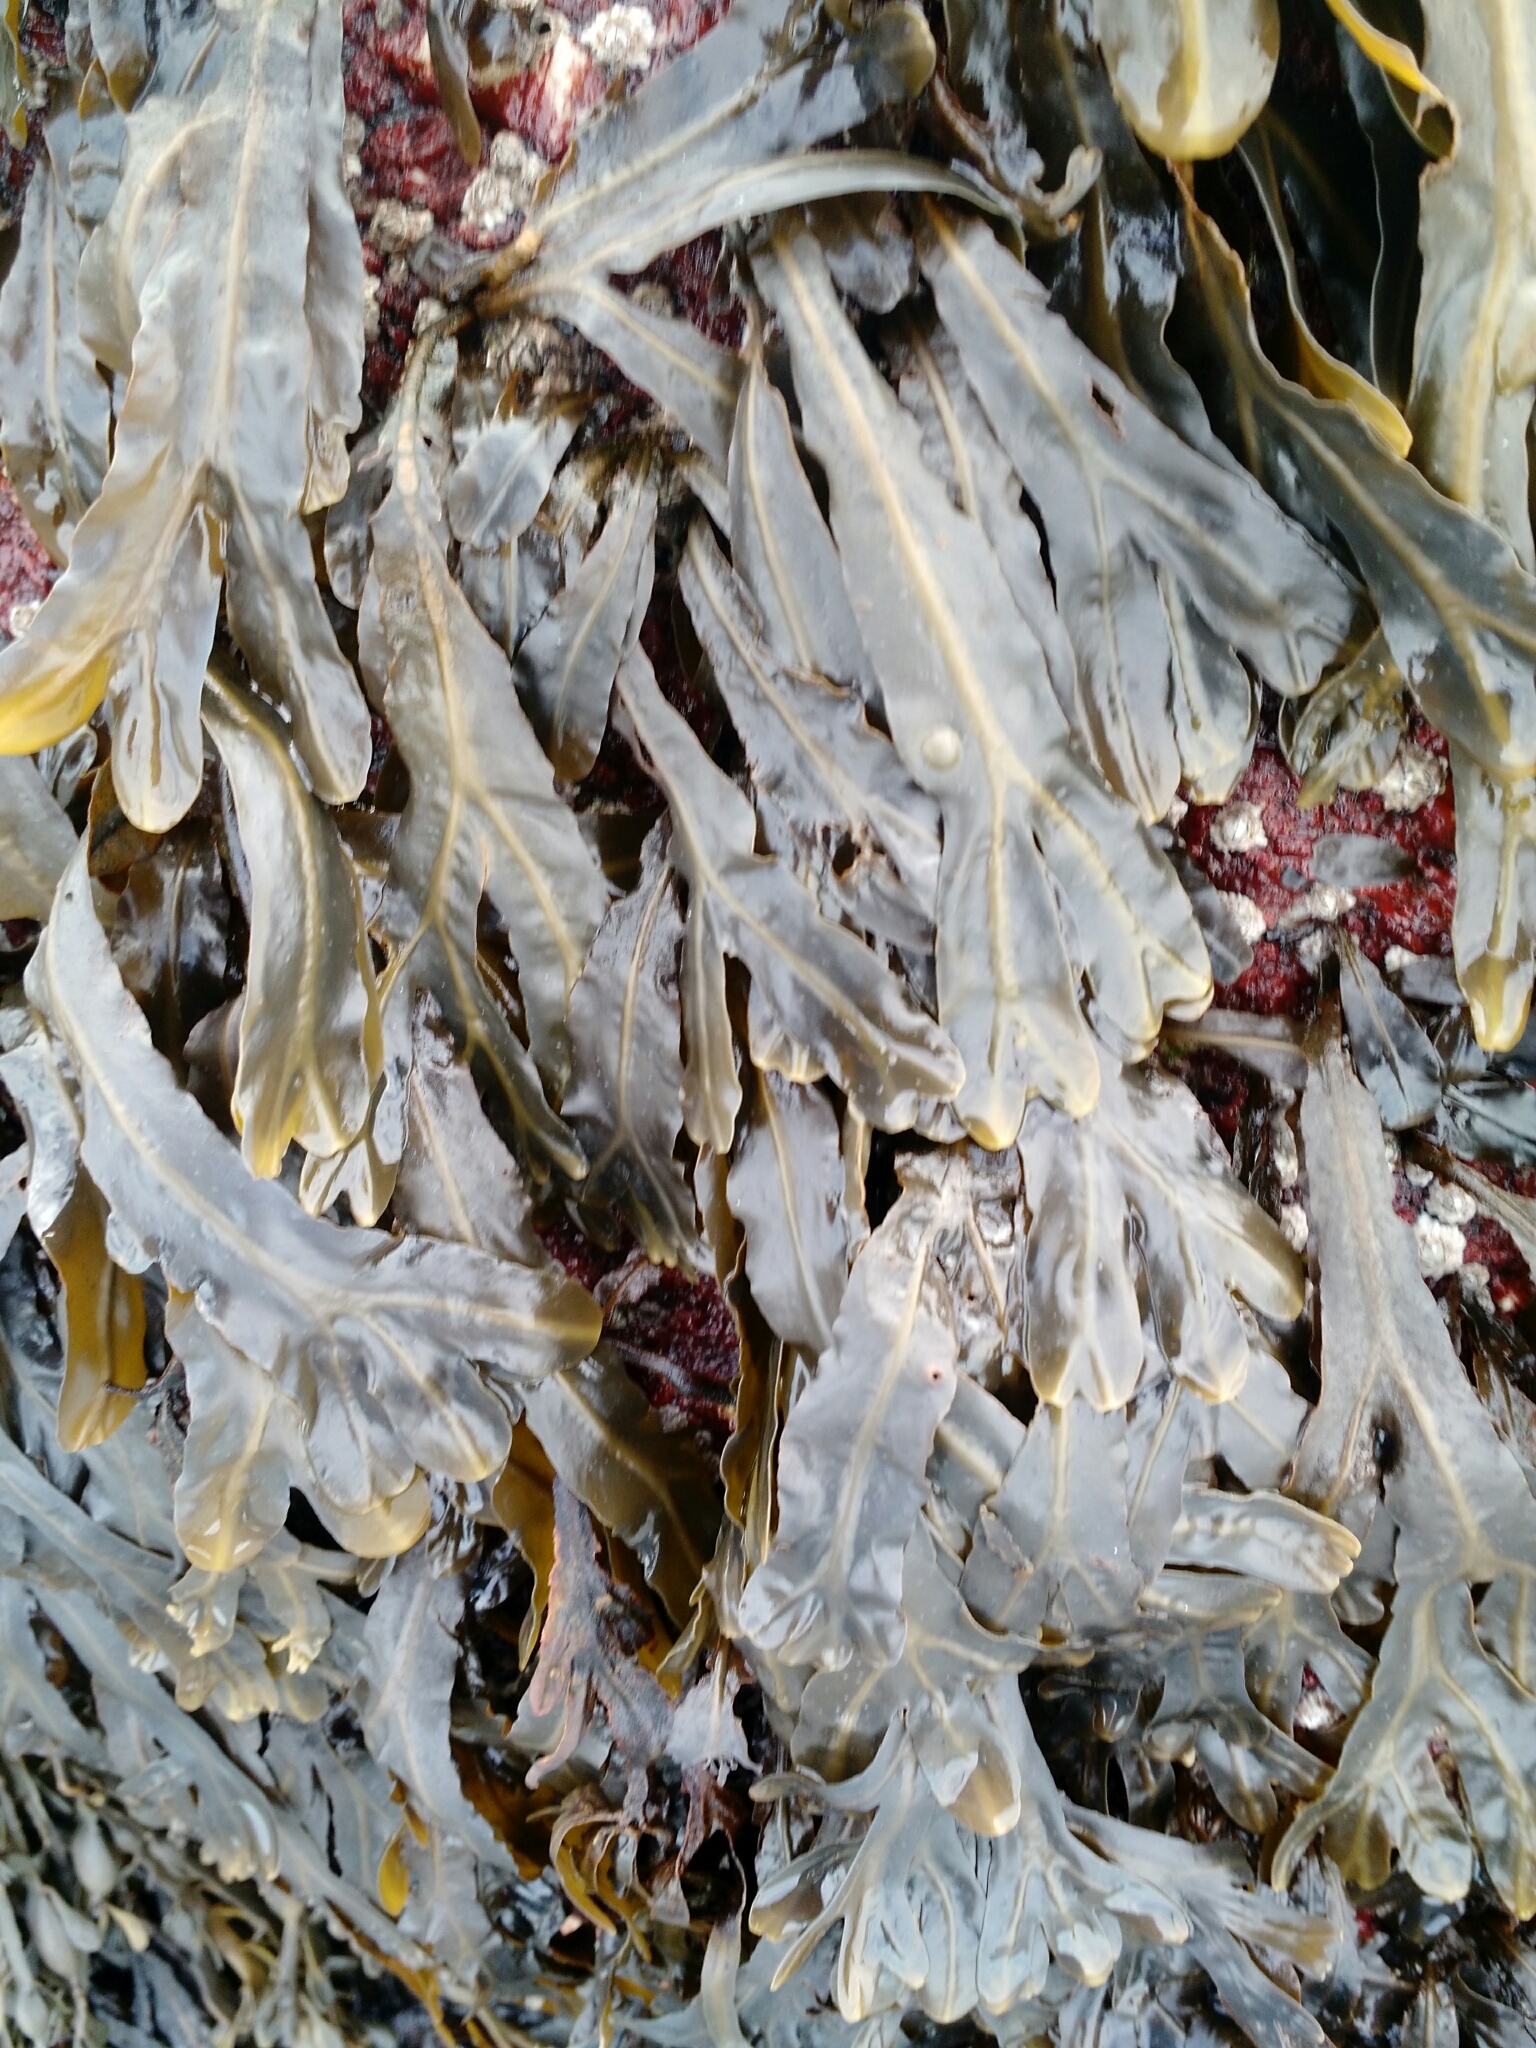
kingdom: Chromista
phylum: Ochrophyta
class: Phaeophyceae
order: Fucales
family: Fucaceae
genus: Fucus
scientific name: Fucus vesiculosus
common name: Bladder wrack
